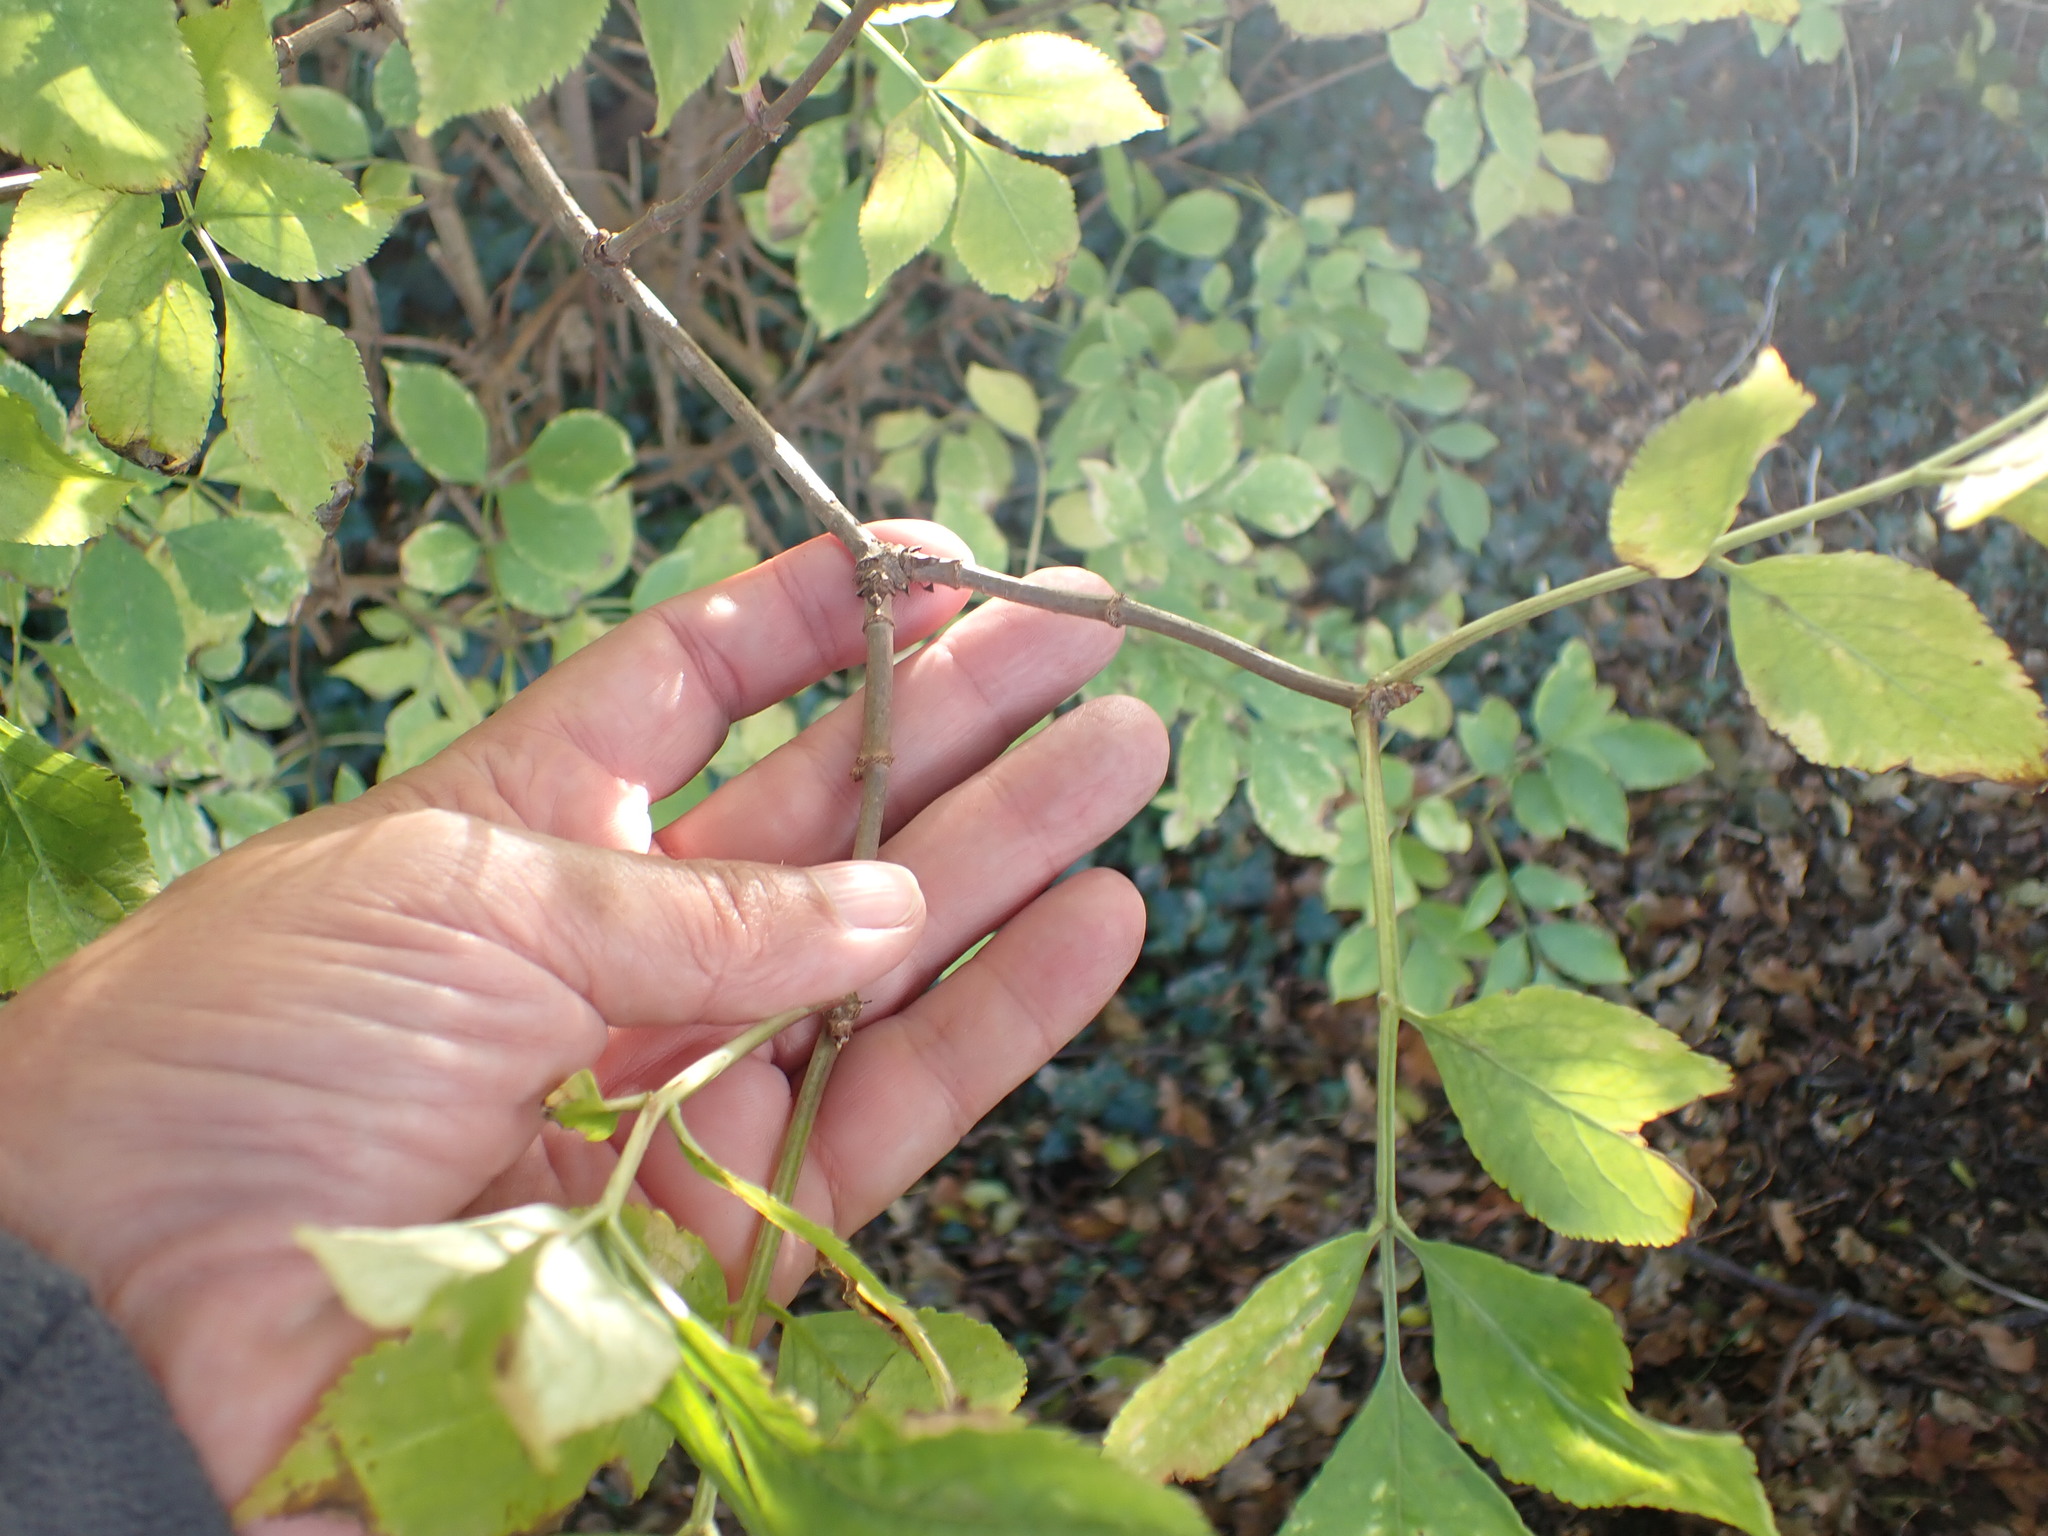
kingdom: Plantae
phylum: Tracheophyta
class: Magnoliopsida
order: Dipsacales
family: Viburnaceae
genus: Sambucus
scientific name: Sambucus nigra
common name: Elder
